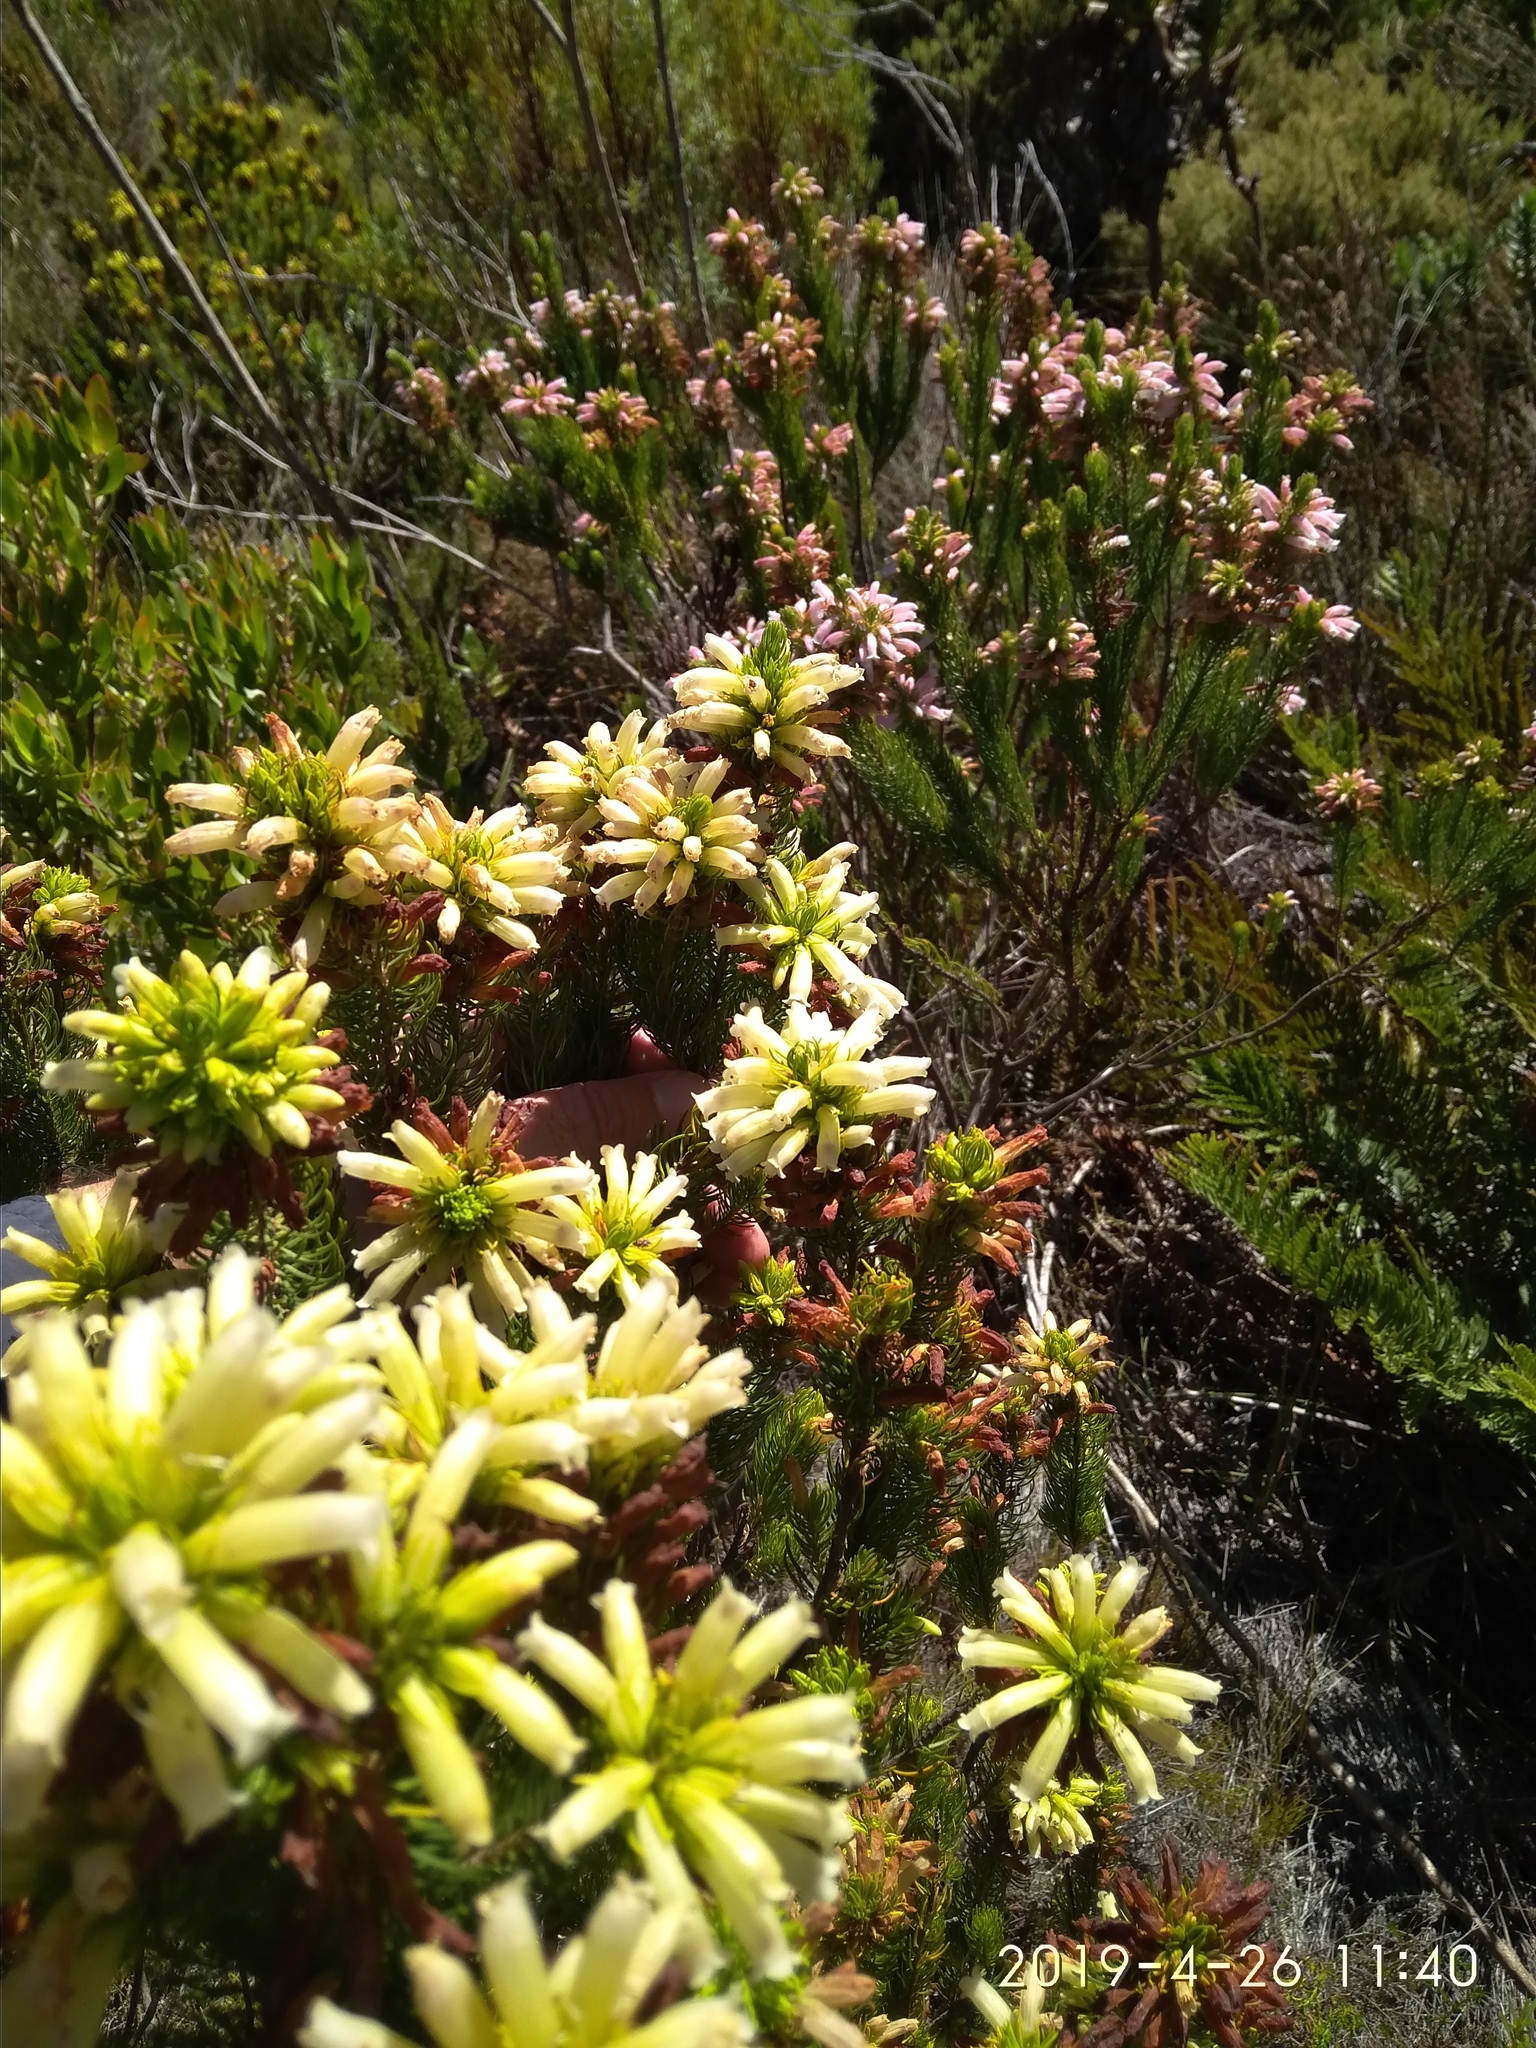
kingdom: Plantae
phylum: Tracheophyta
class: Magnoliopsida
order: Ericales
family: Ericaceae
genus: Erica
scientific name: Erica viscaria
